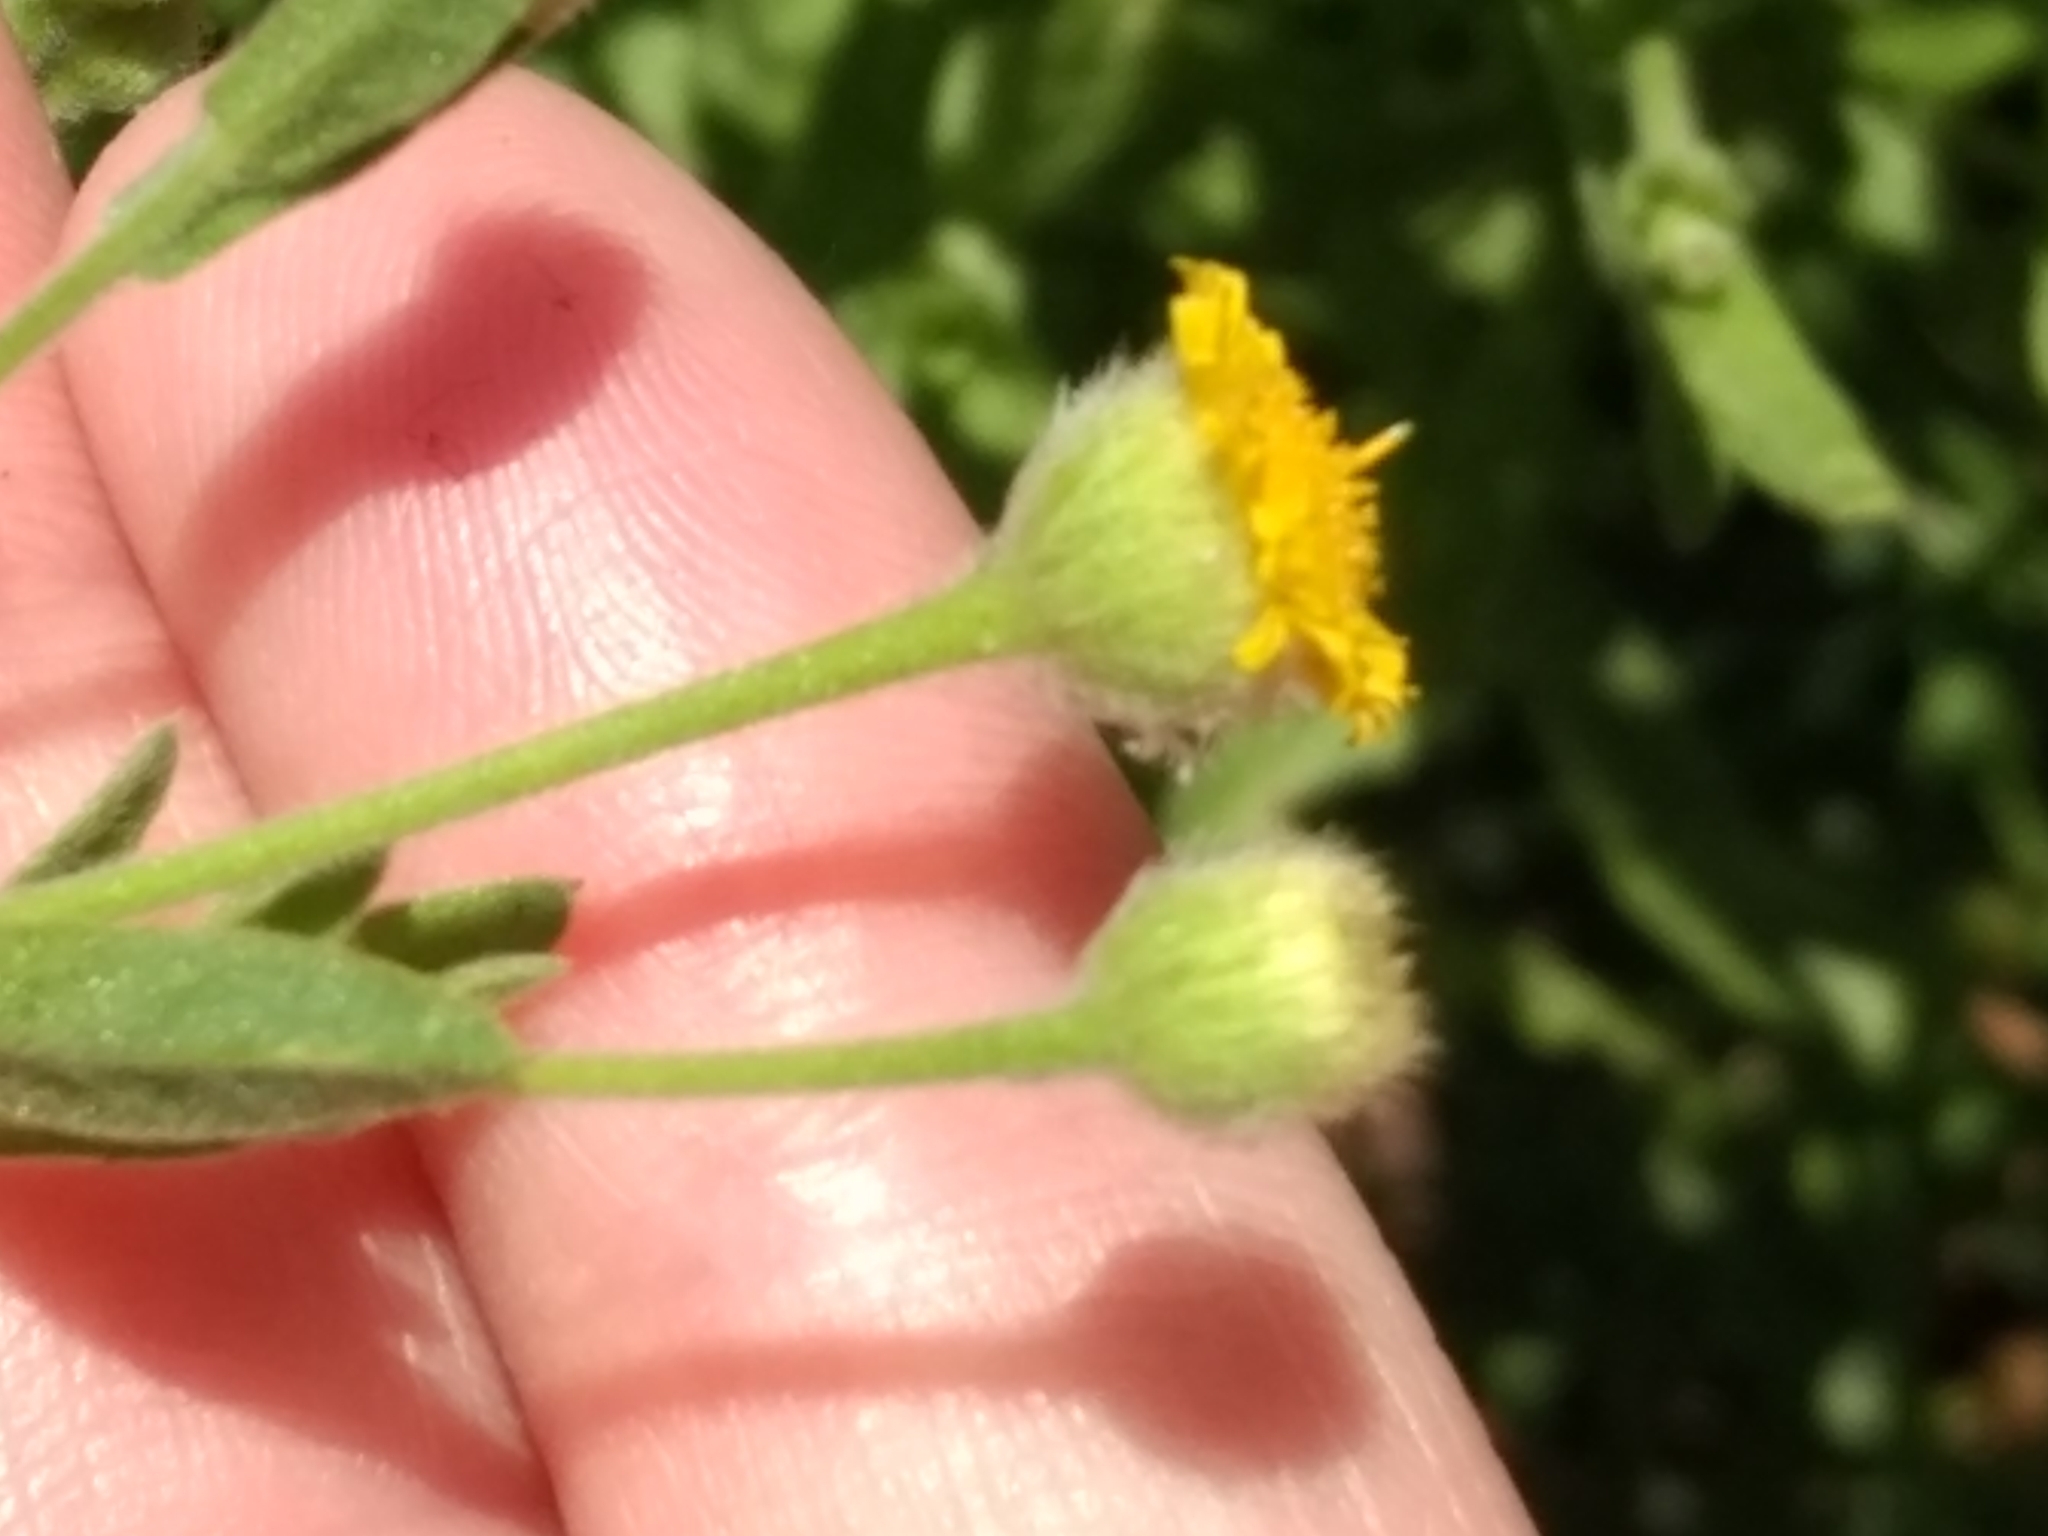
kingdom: Plantae
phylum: Tracheophyta
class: Magnoliopsida
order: Asterales
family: Asteraceae
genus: Pulicaria
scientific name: Pulicaria paludosa
